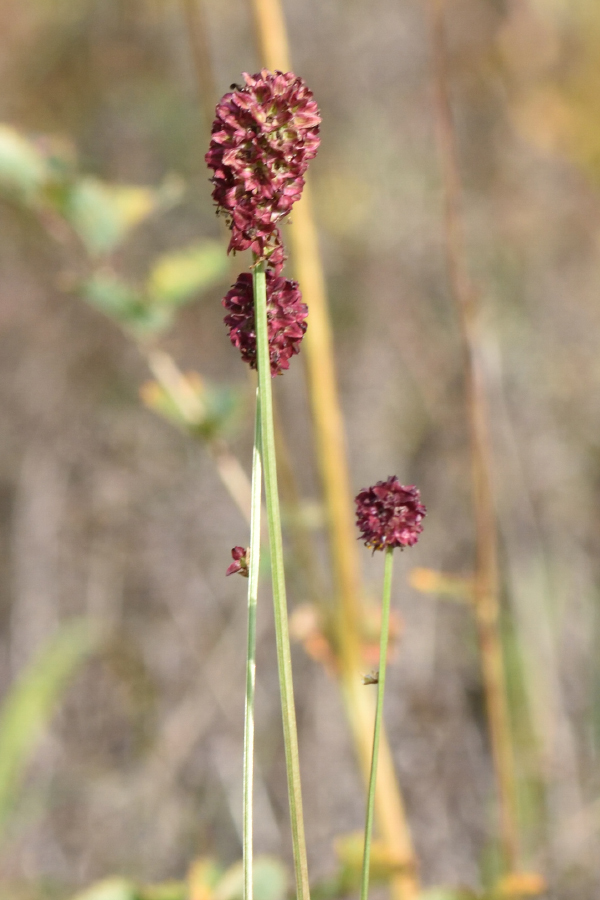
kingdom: Plantae
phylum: Tracheophyta
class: Magnoliopsida
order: Rosales
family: Rosaceae
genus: Sanguisorba
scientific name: Sanguisorba officinalis
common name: Great burnet
